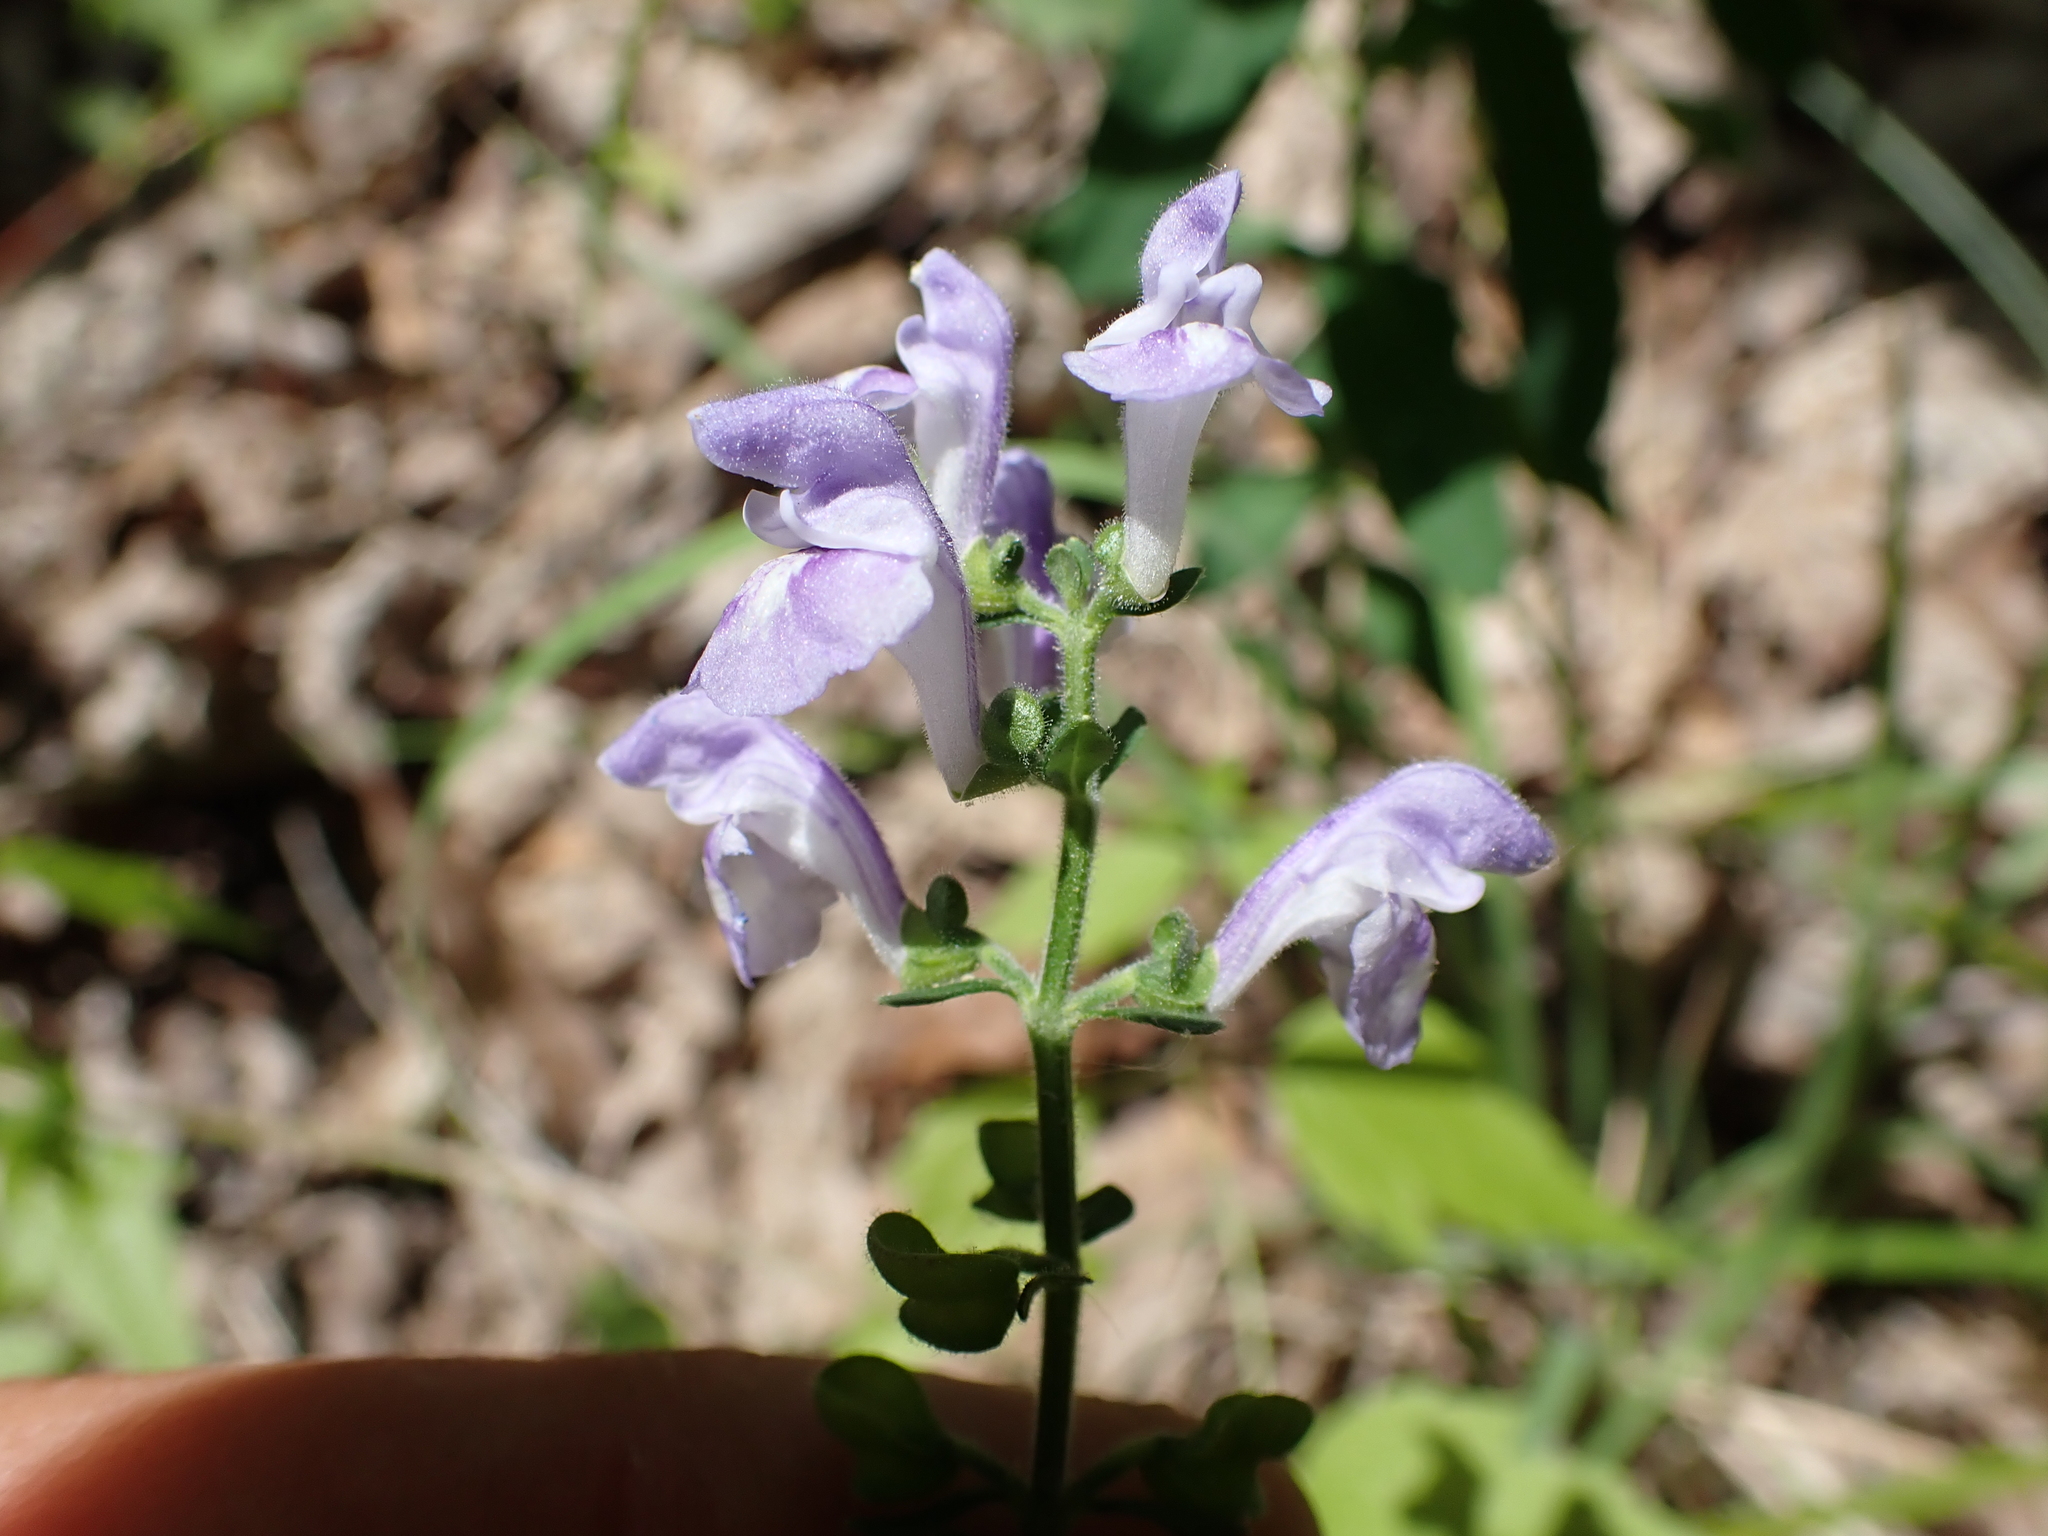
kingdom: Plantae
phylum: Tracheophyta
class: Magnoliopsida
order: Lamiales
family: Lamiaceae
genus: Scutellaria
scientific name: Scutellaria elliptica
